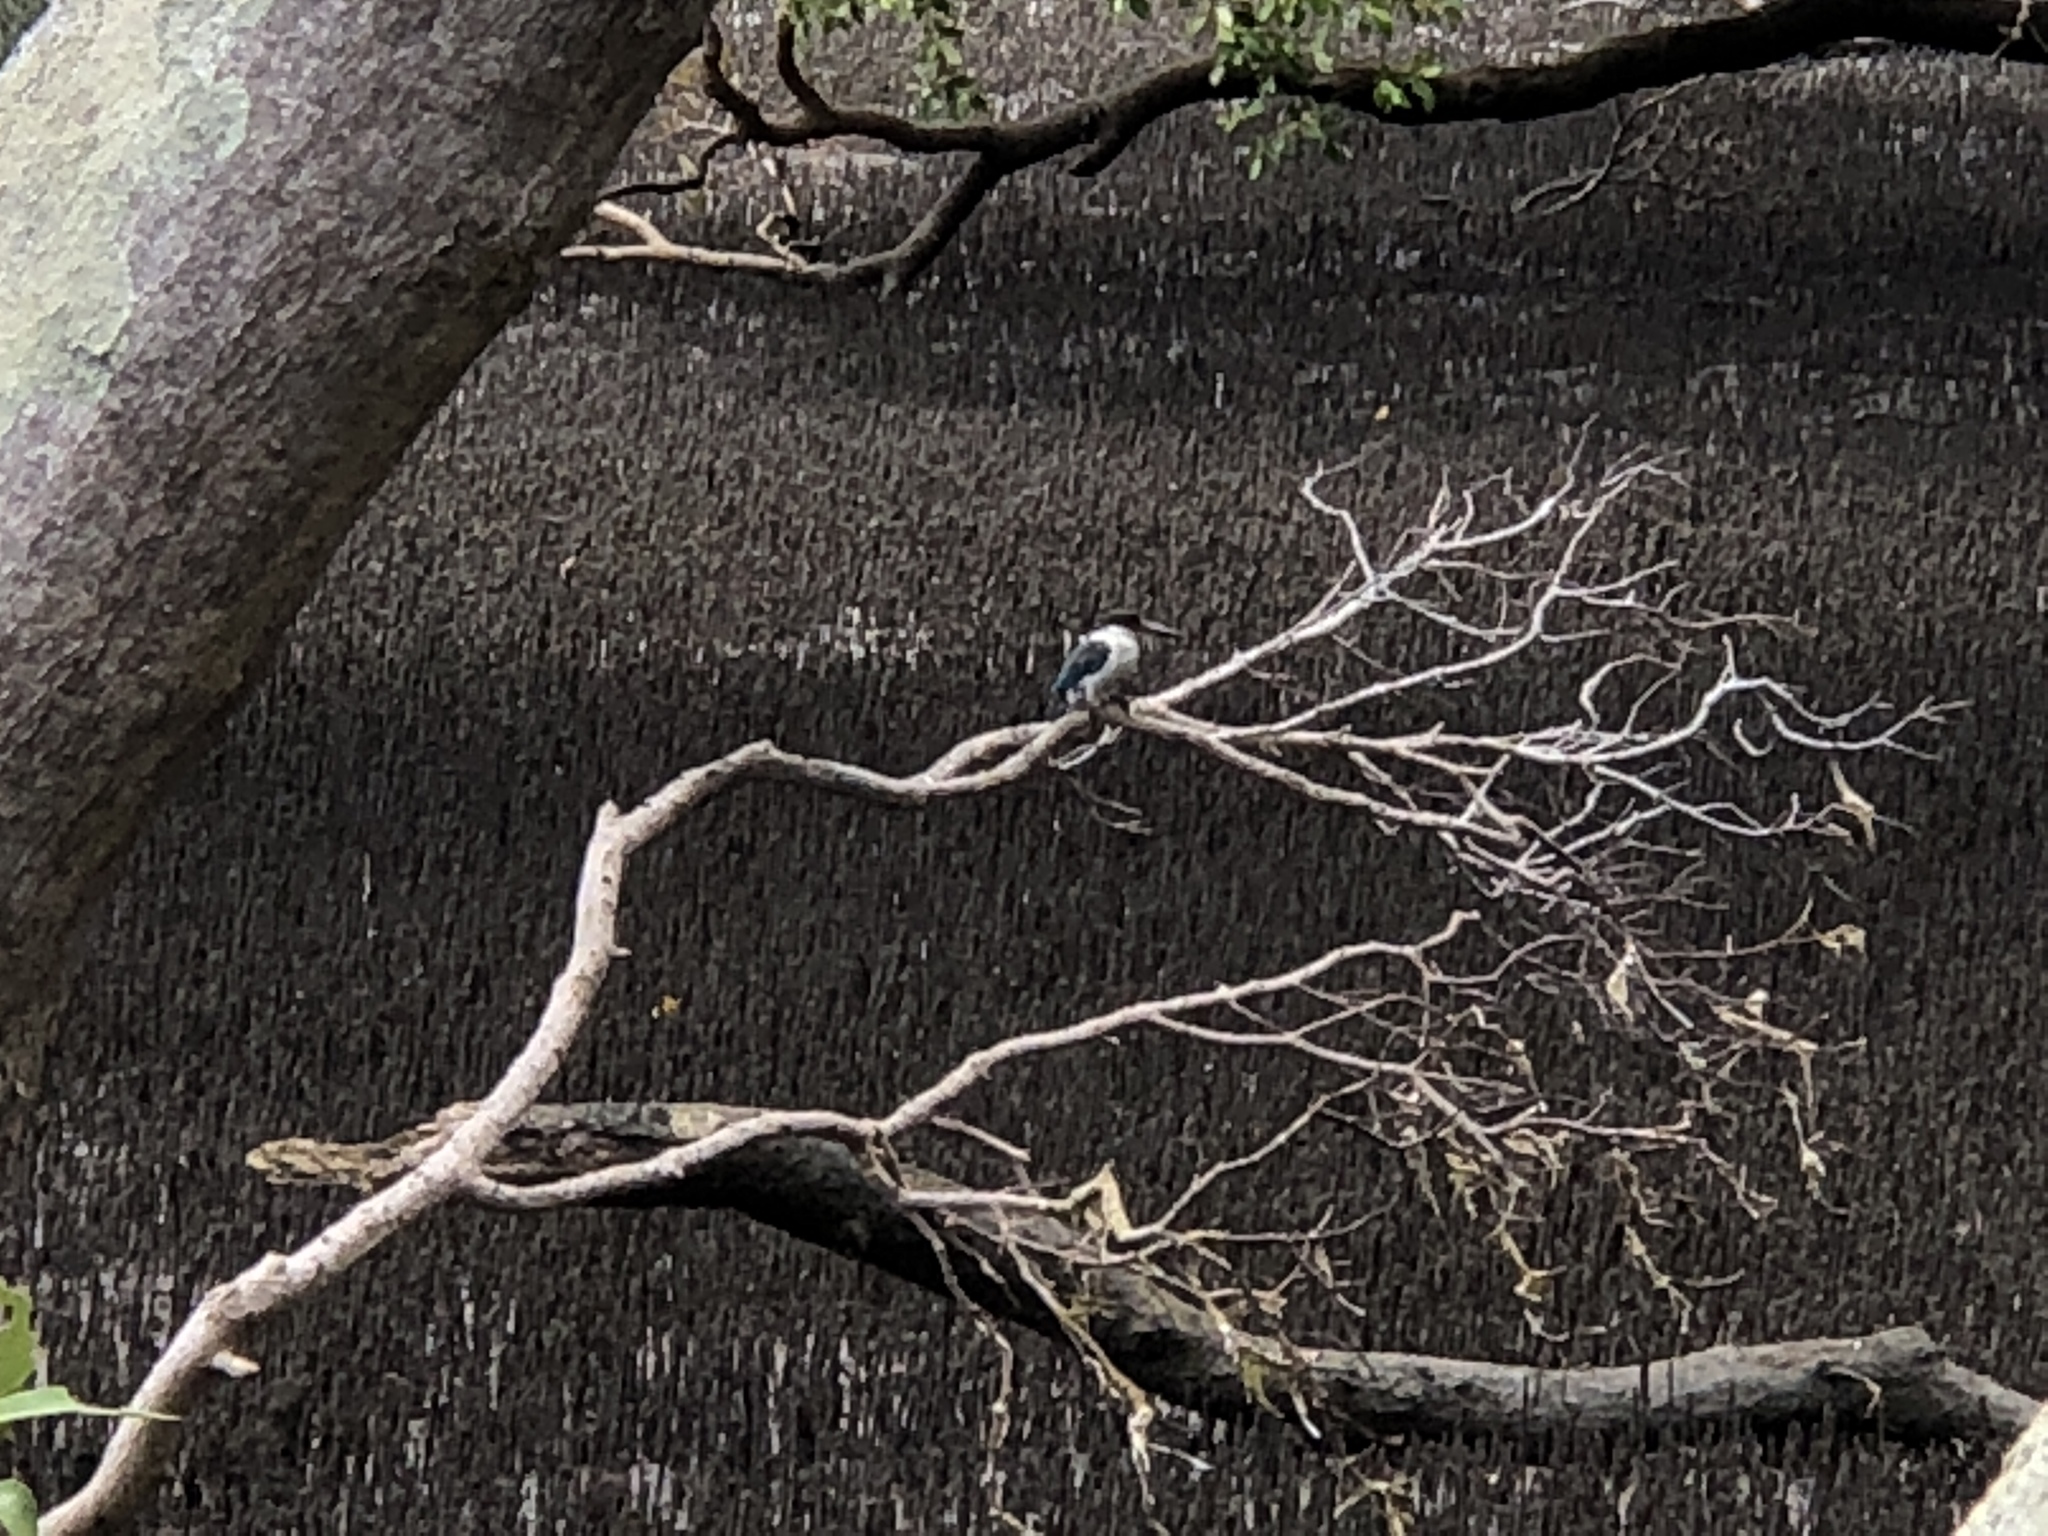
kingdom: Animalia
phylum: Chordata
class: Aves
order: Coraciiformes
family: Alcedinidae
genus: Todiramphus
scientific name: Todiramphus sordidus
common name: Torresian kingfisher
